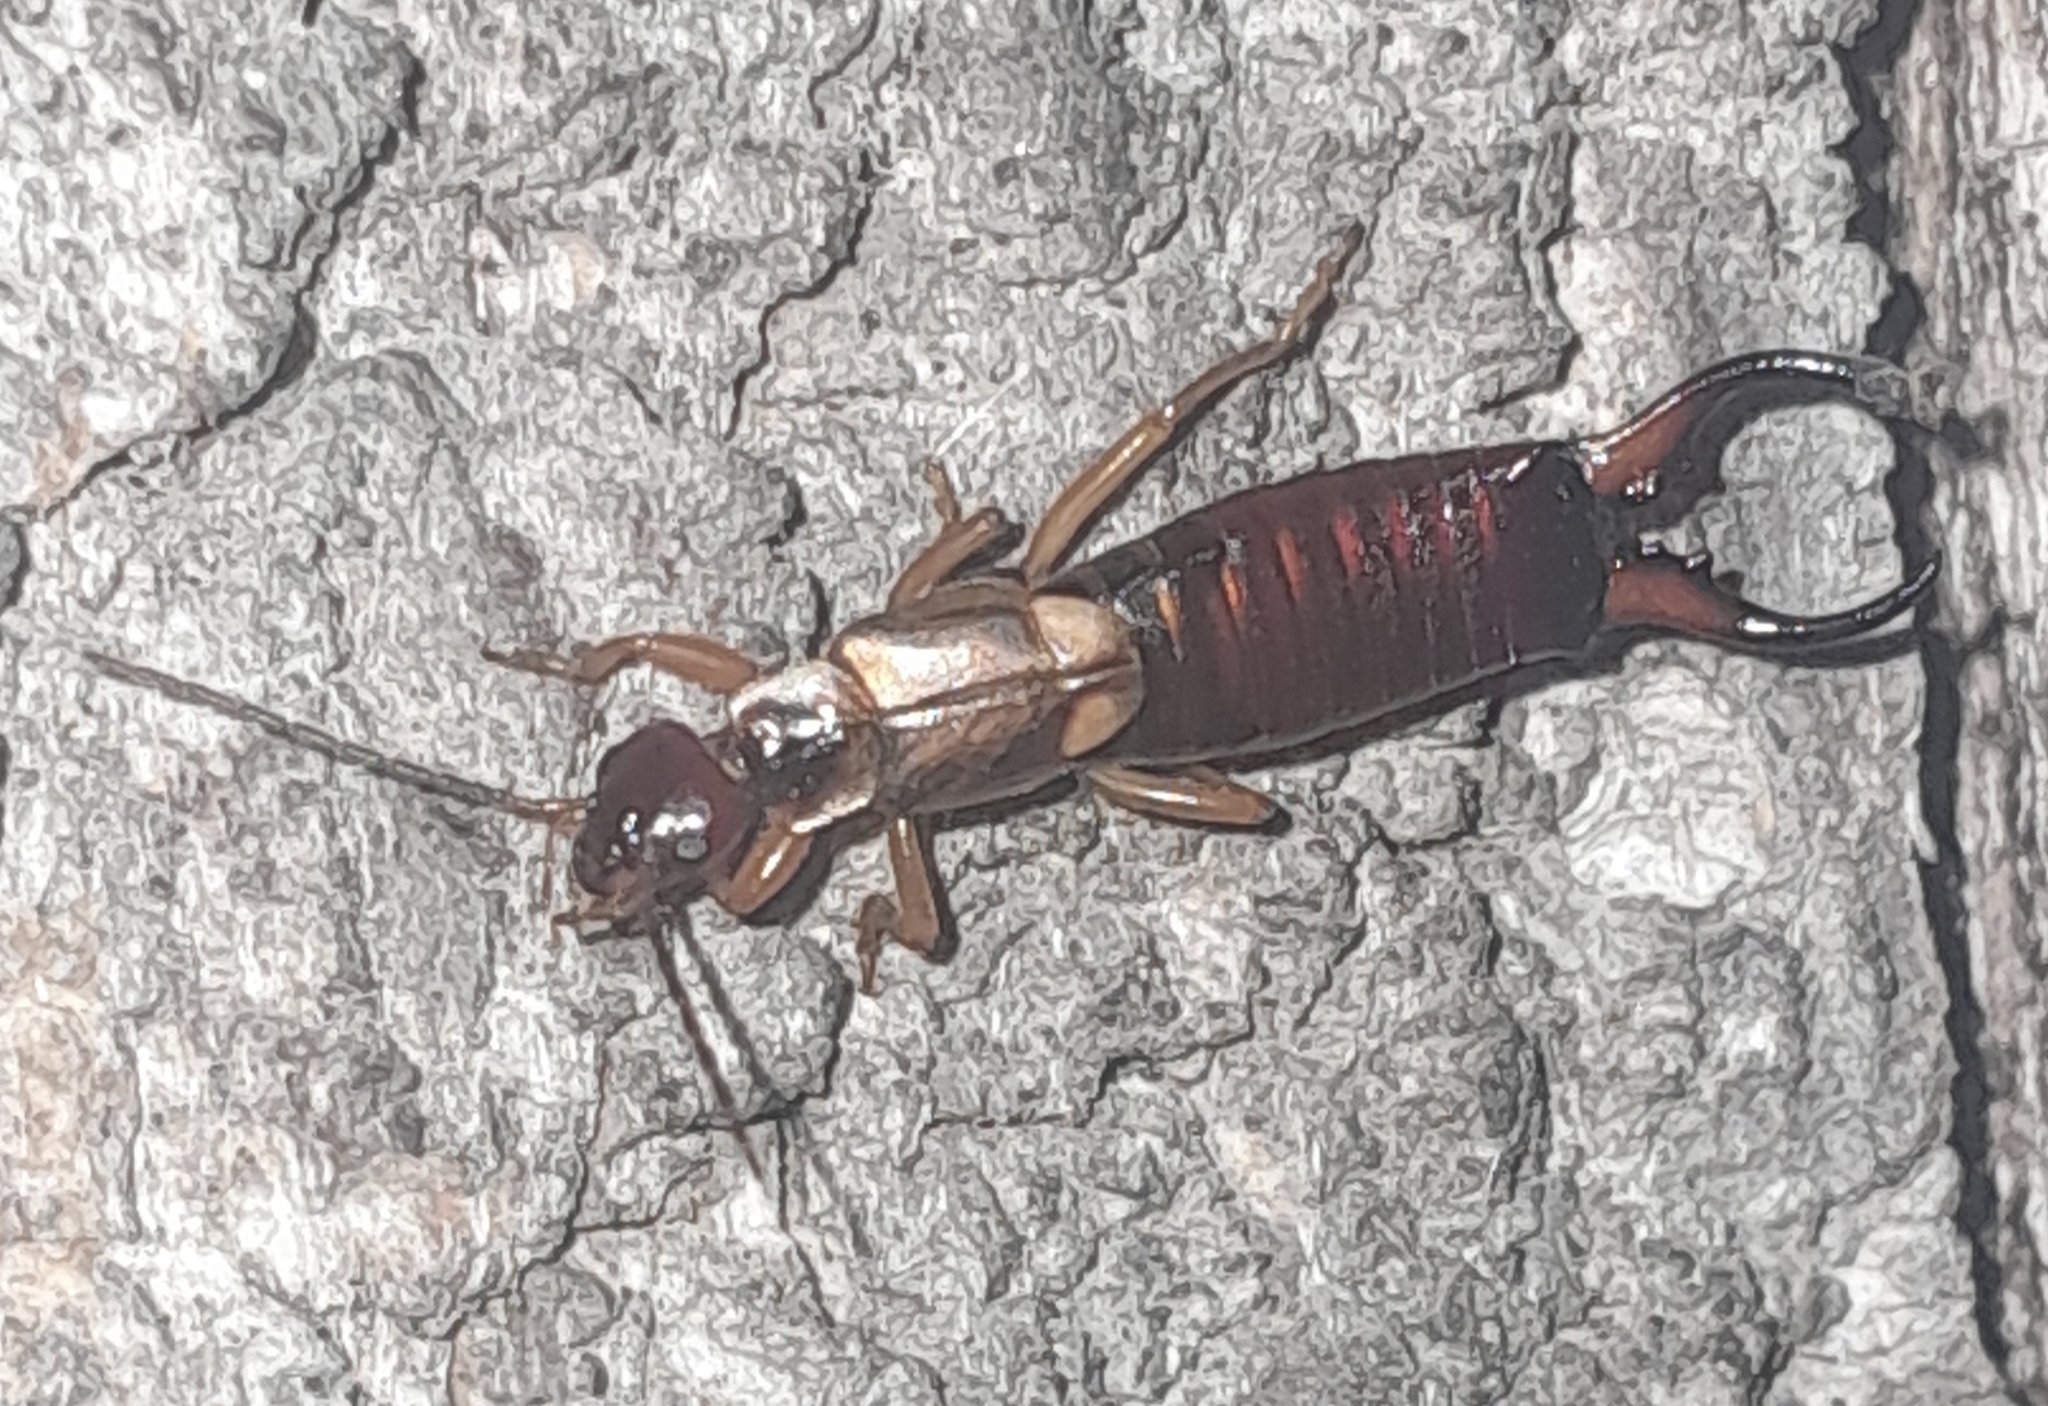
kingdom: Animalia
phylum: Arthropoda
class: Insecta
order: Dermaptera
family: Forficulidae
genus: Forficula
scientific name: Forficula auricularia
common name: European earwig
